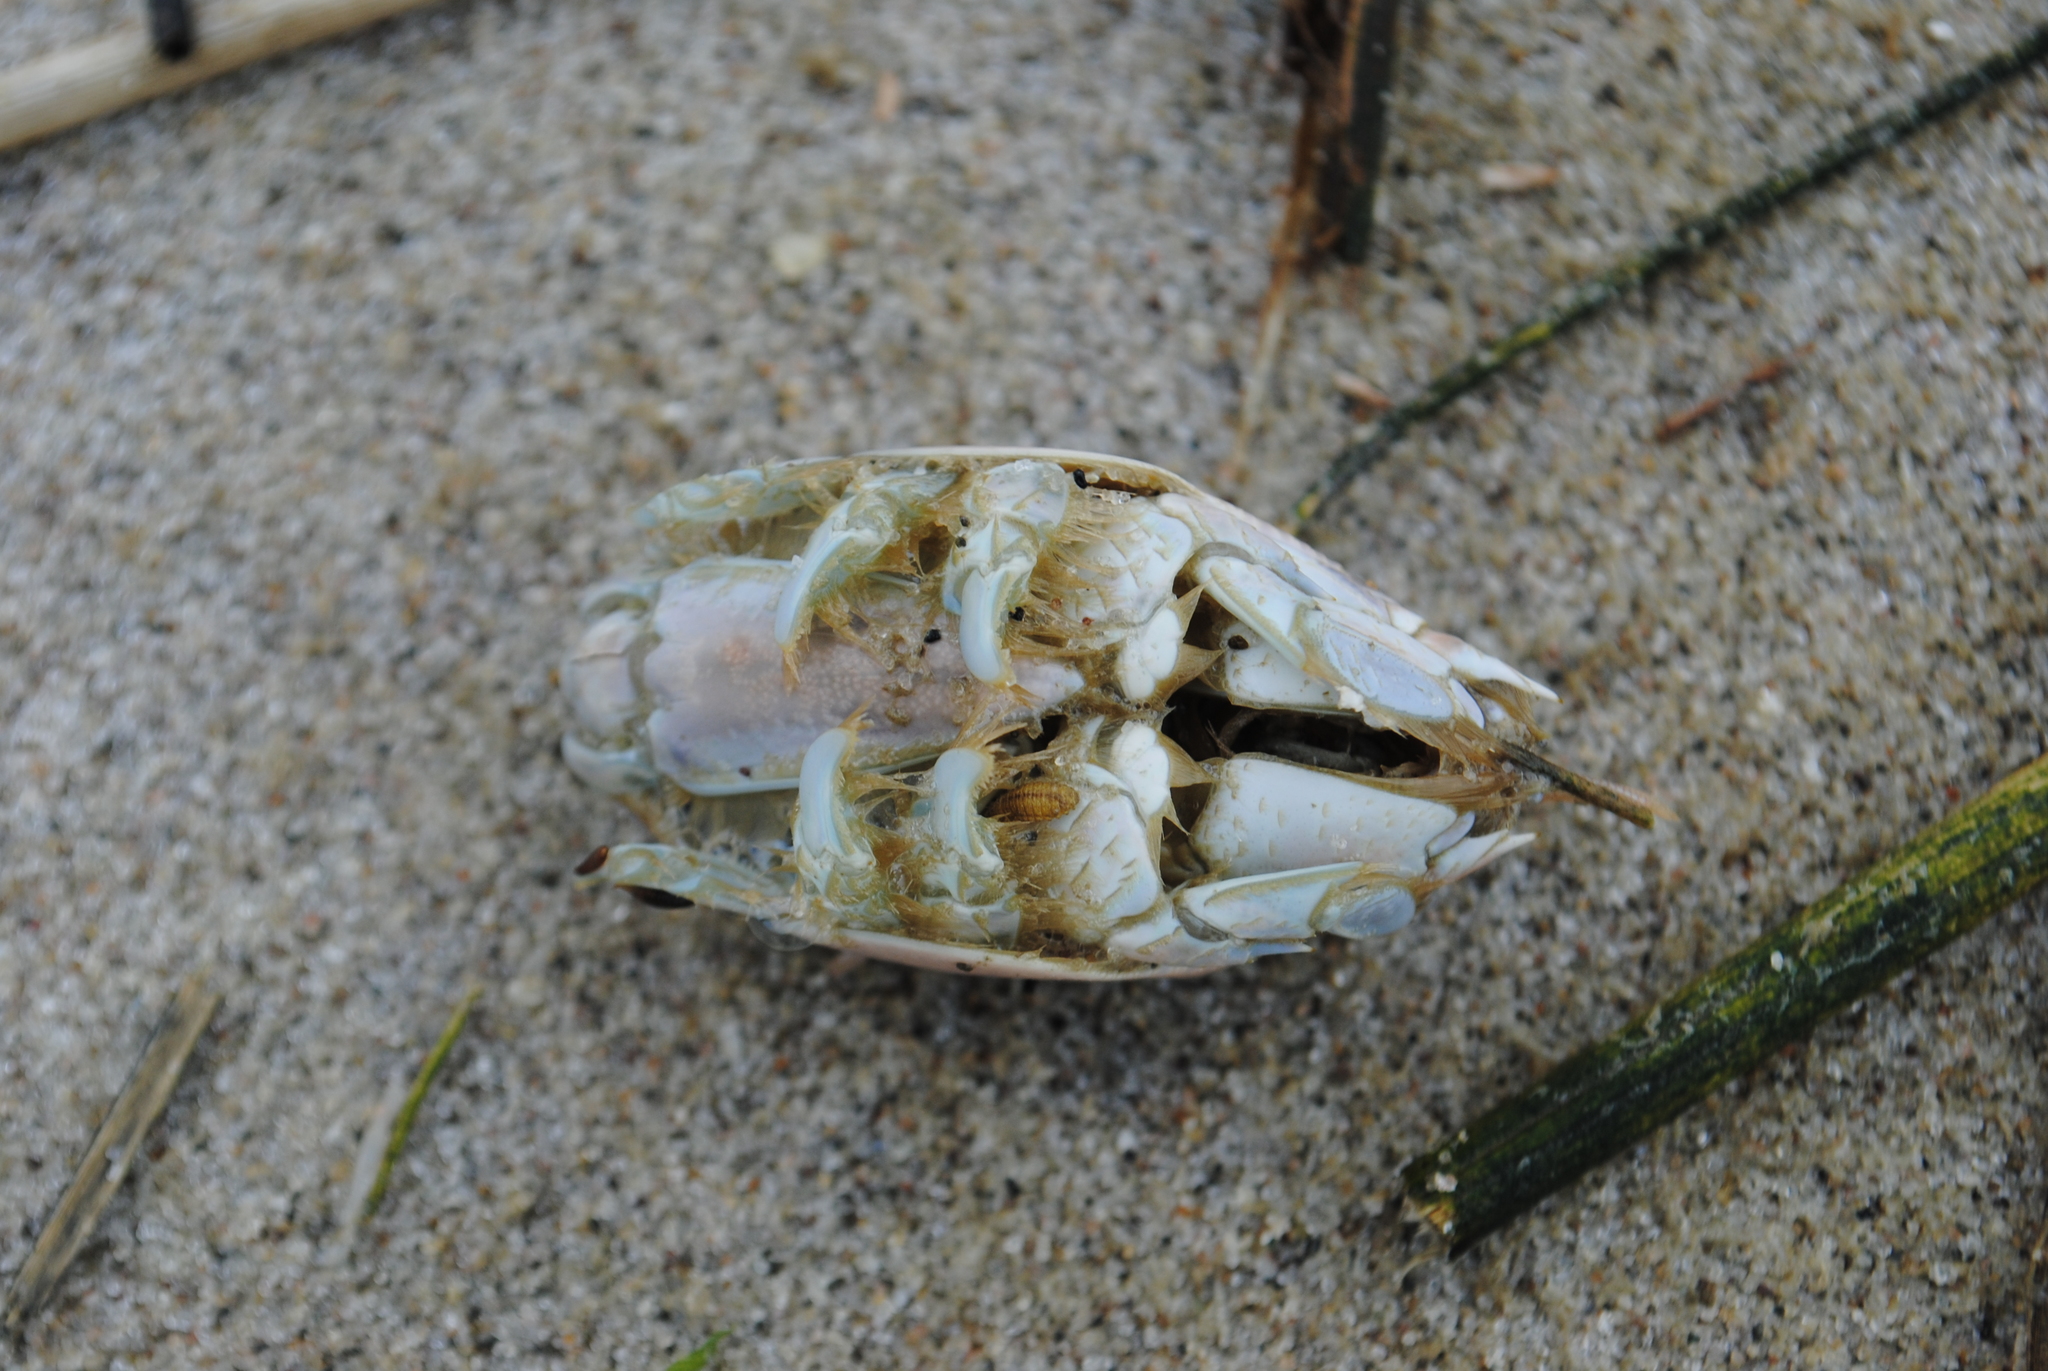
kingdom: Animalia
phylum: Arthropoda
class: Malacostraca
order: Decapoda
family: Hippidae
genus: Emerita
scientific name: Emerita talpoida
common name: Atlantic sand crab
